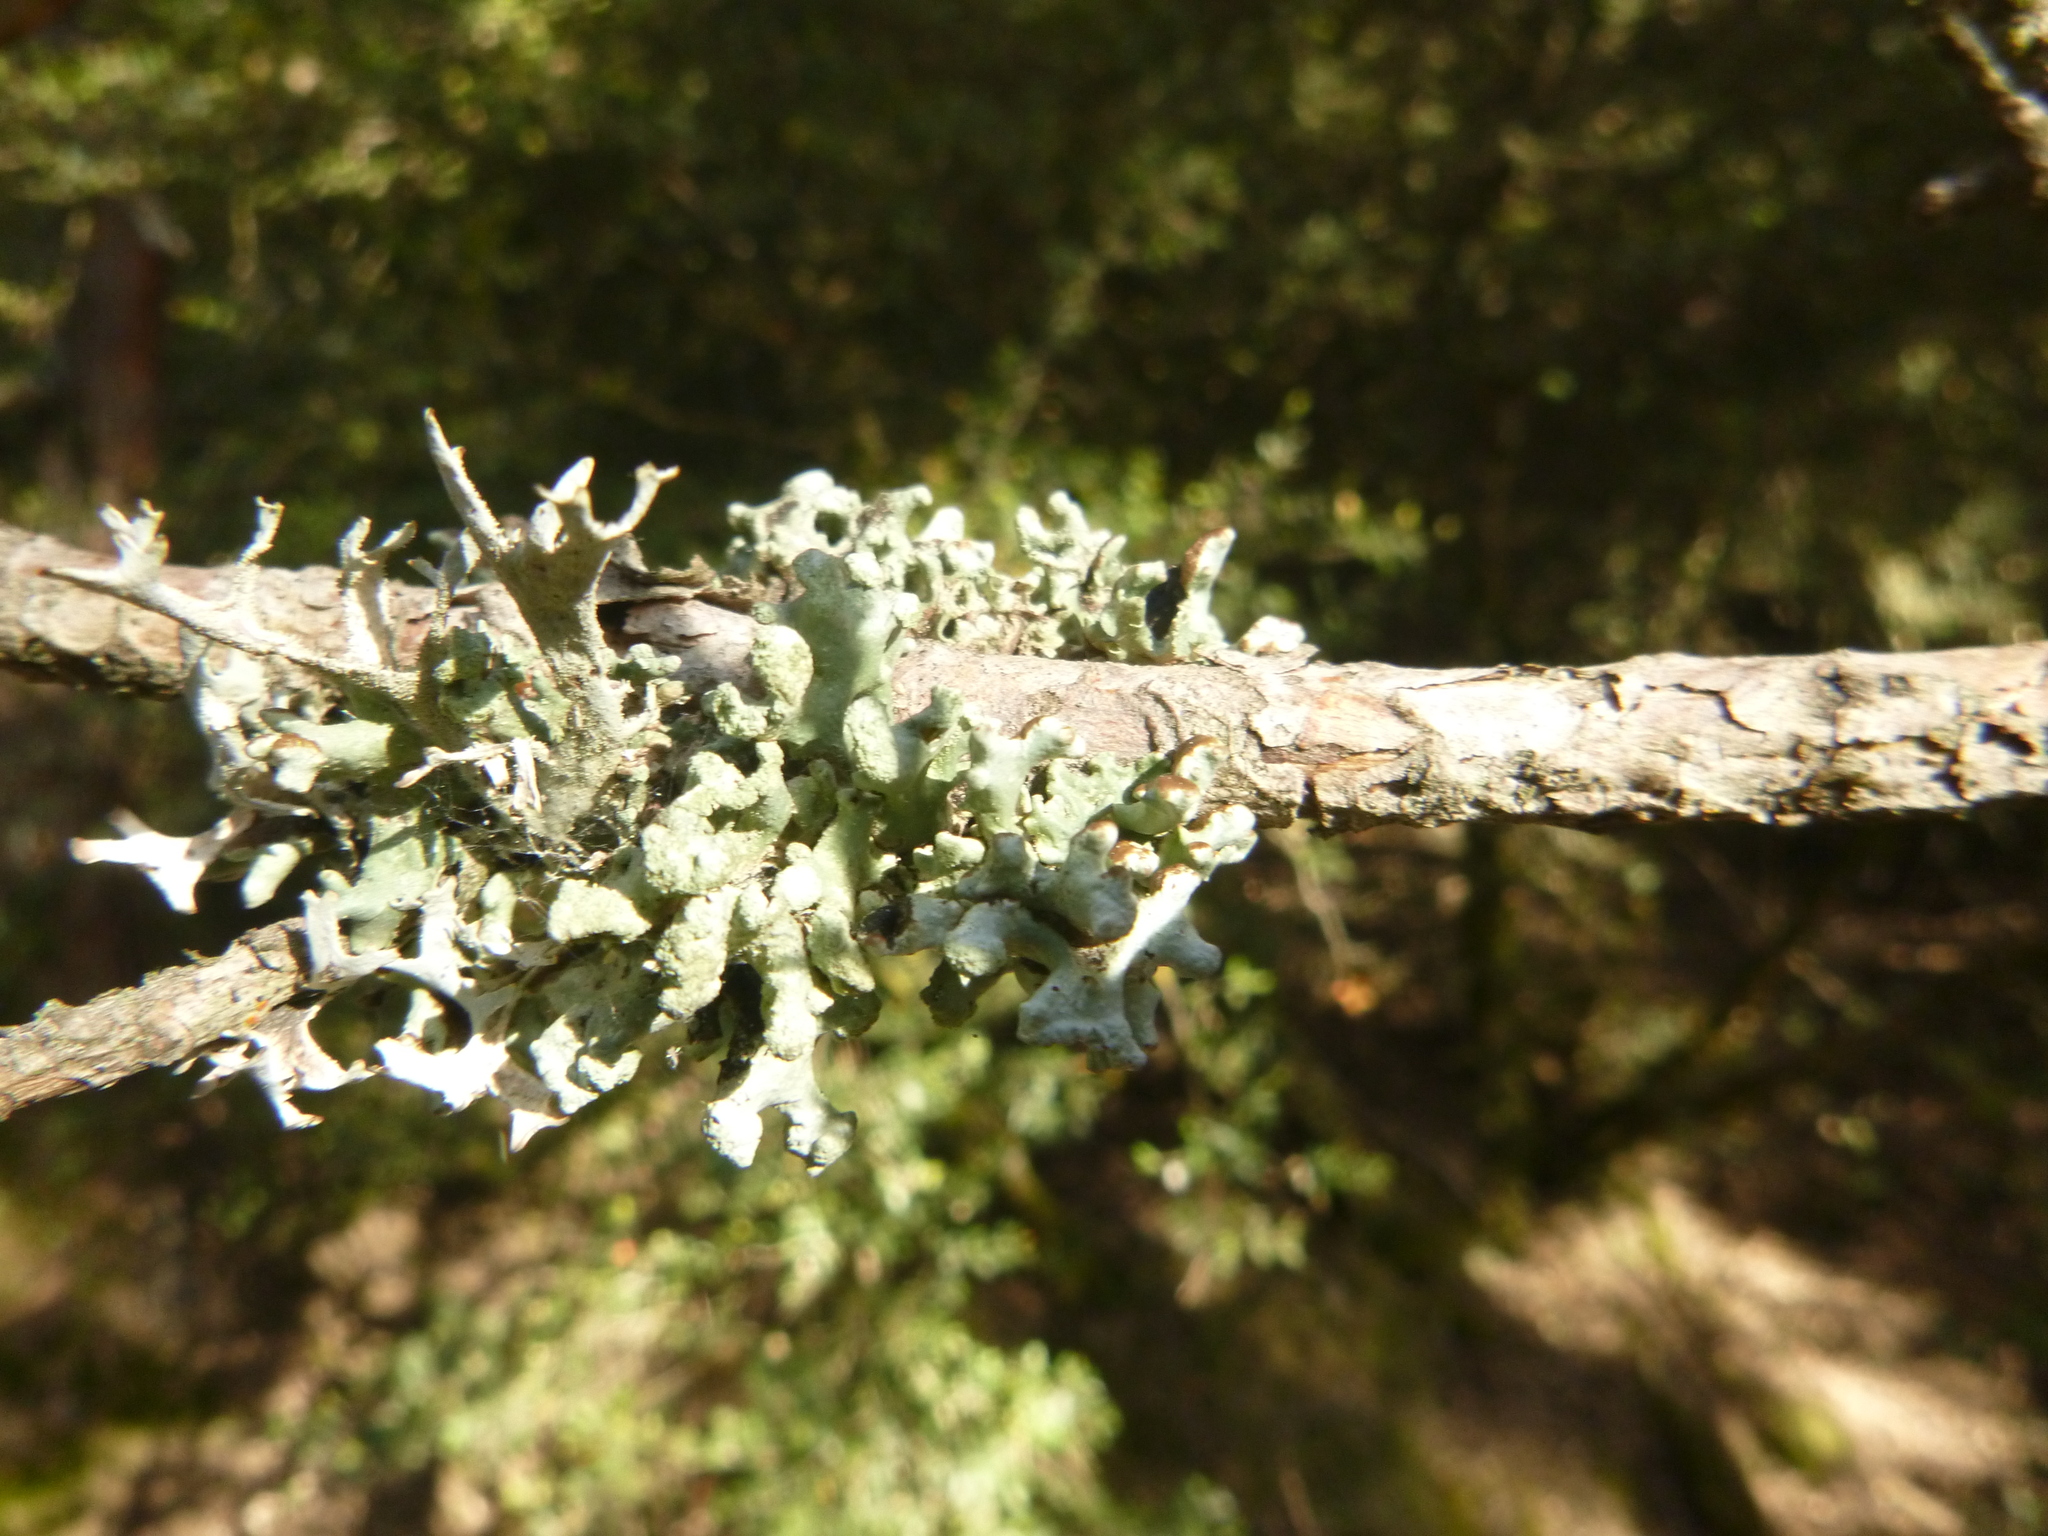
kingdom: Fungi
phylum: Ascomycota
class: Lecanoromycetes
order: Lecanorales
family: Parmeliaceae
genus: Hypogymnia
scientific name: Hypogymnia tubulosa
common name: Powder-headed tube lichen
